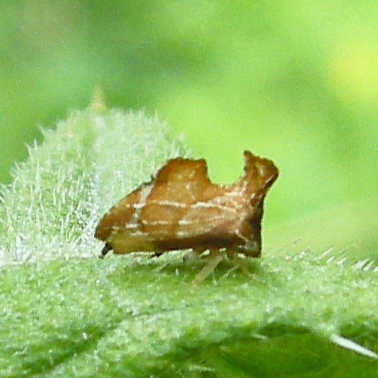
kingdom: Animalia
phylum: Arthropoda
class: Insecta
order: Hemiptera
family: Membracidae
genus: Entylia
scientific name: Entylia carinata
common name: Keeled treehopper
